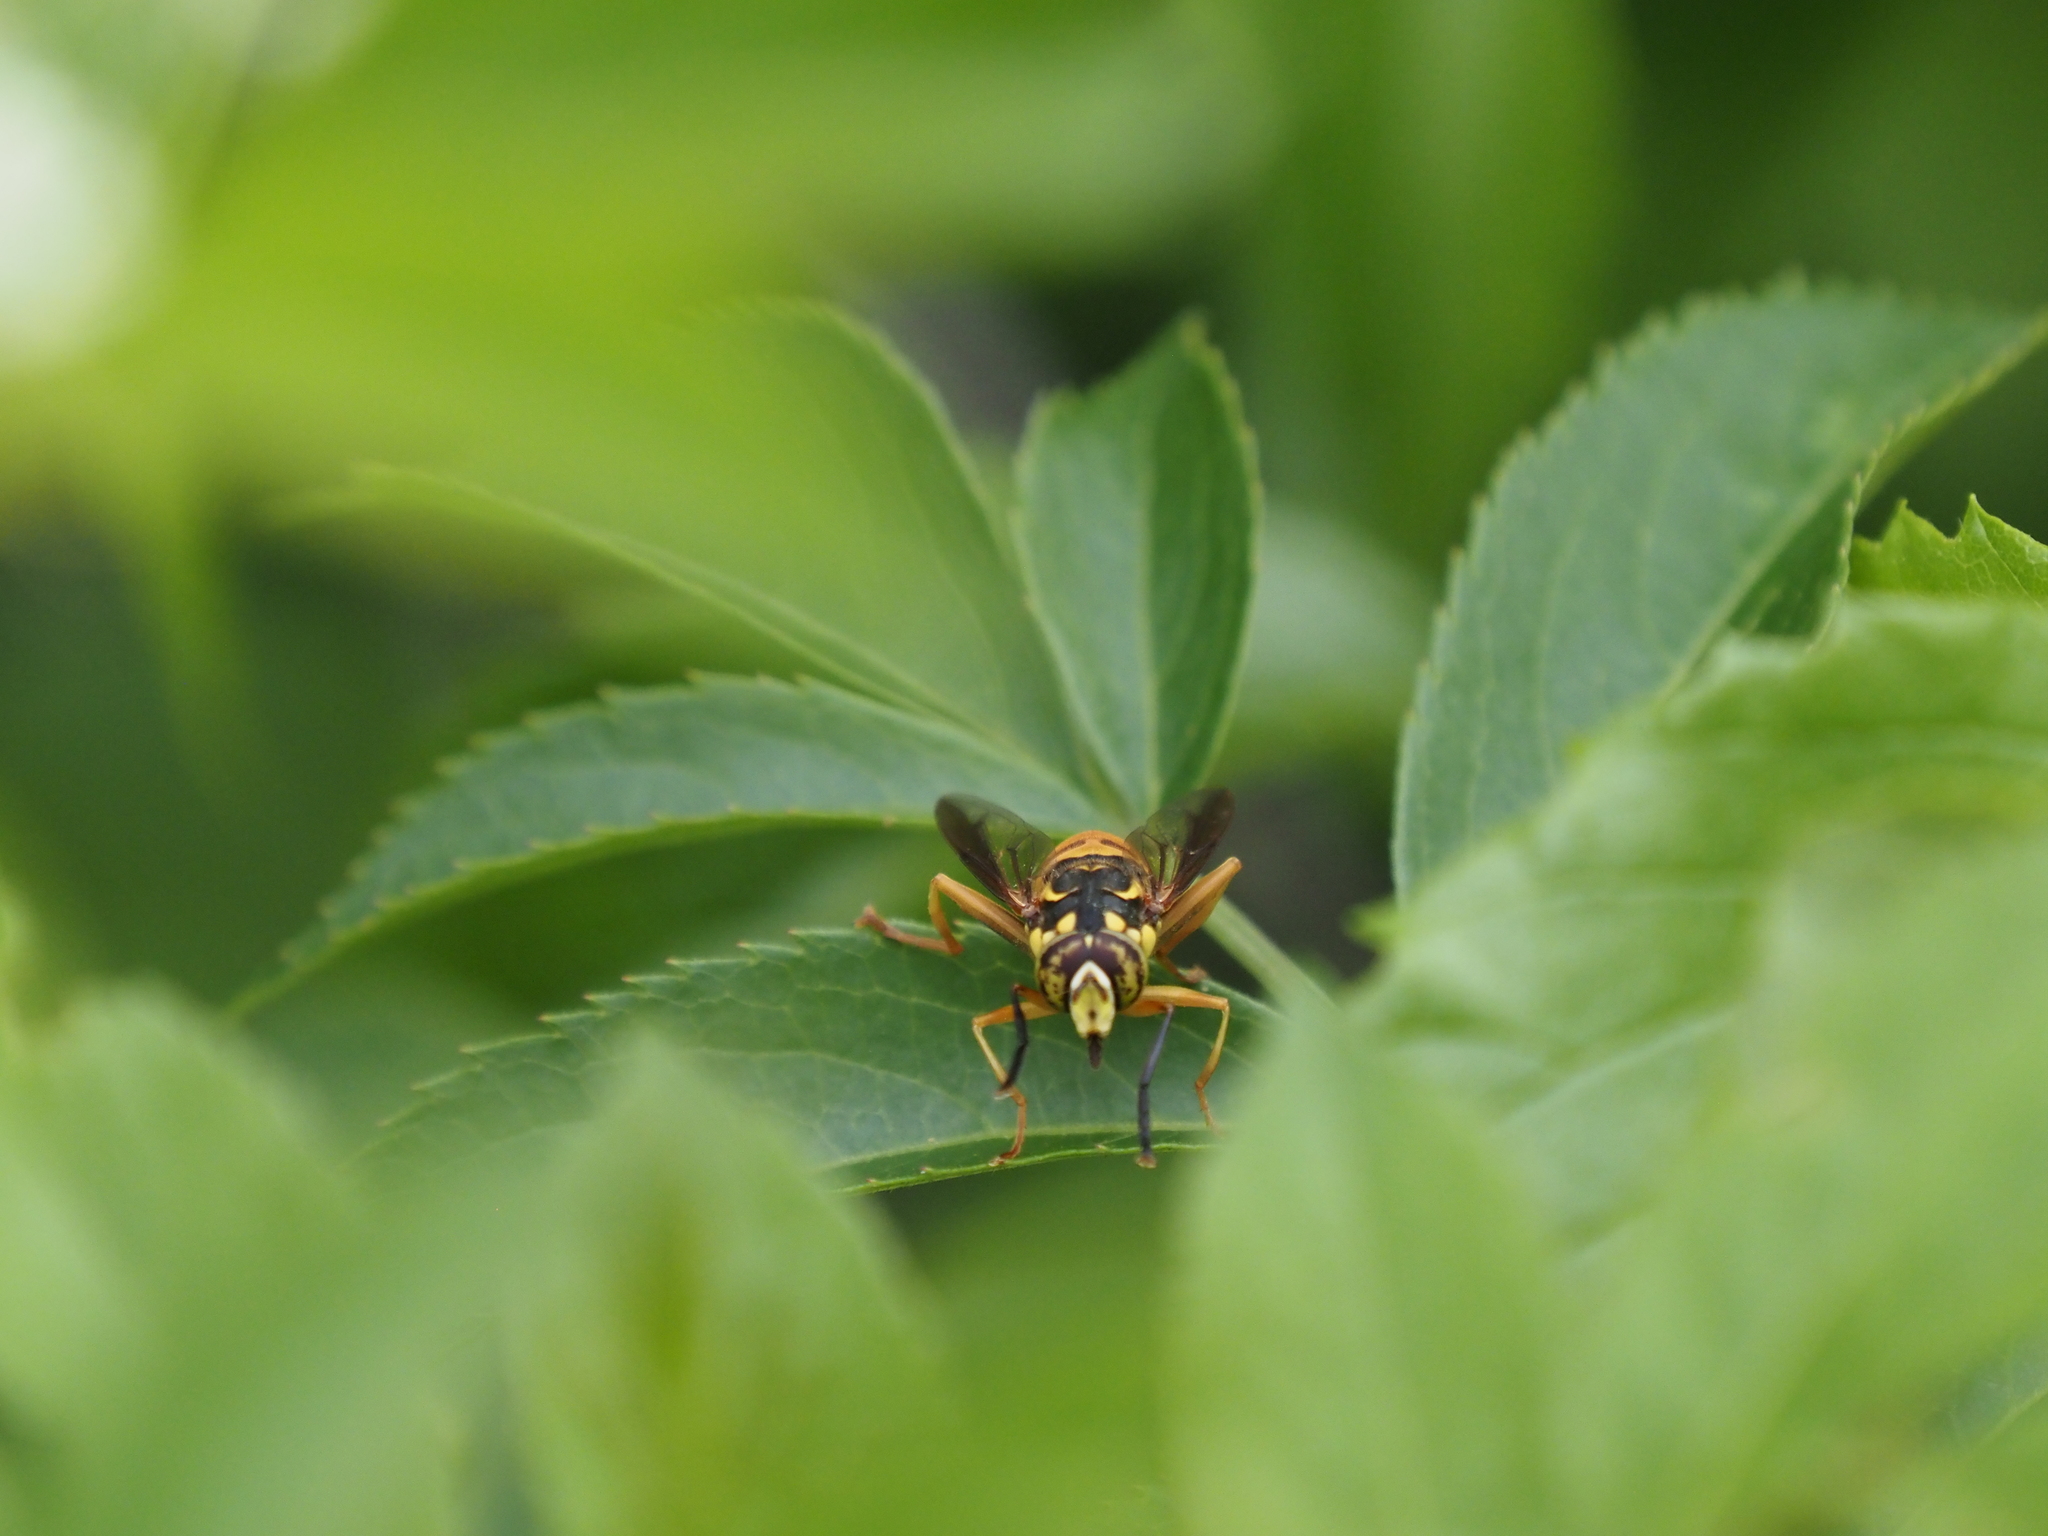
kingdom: Animalia
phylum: Arthropoda
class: Insecta
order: Diptera
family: Syrphidae
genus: Spilomyia
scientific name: Spilomyia alcimus
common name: Broad-banded hornet fly
